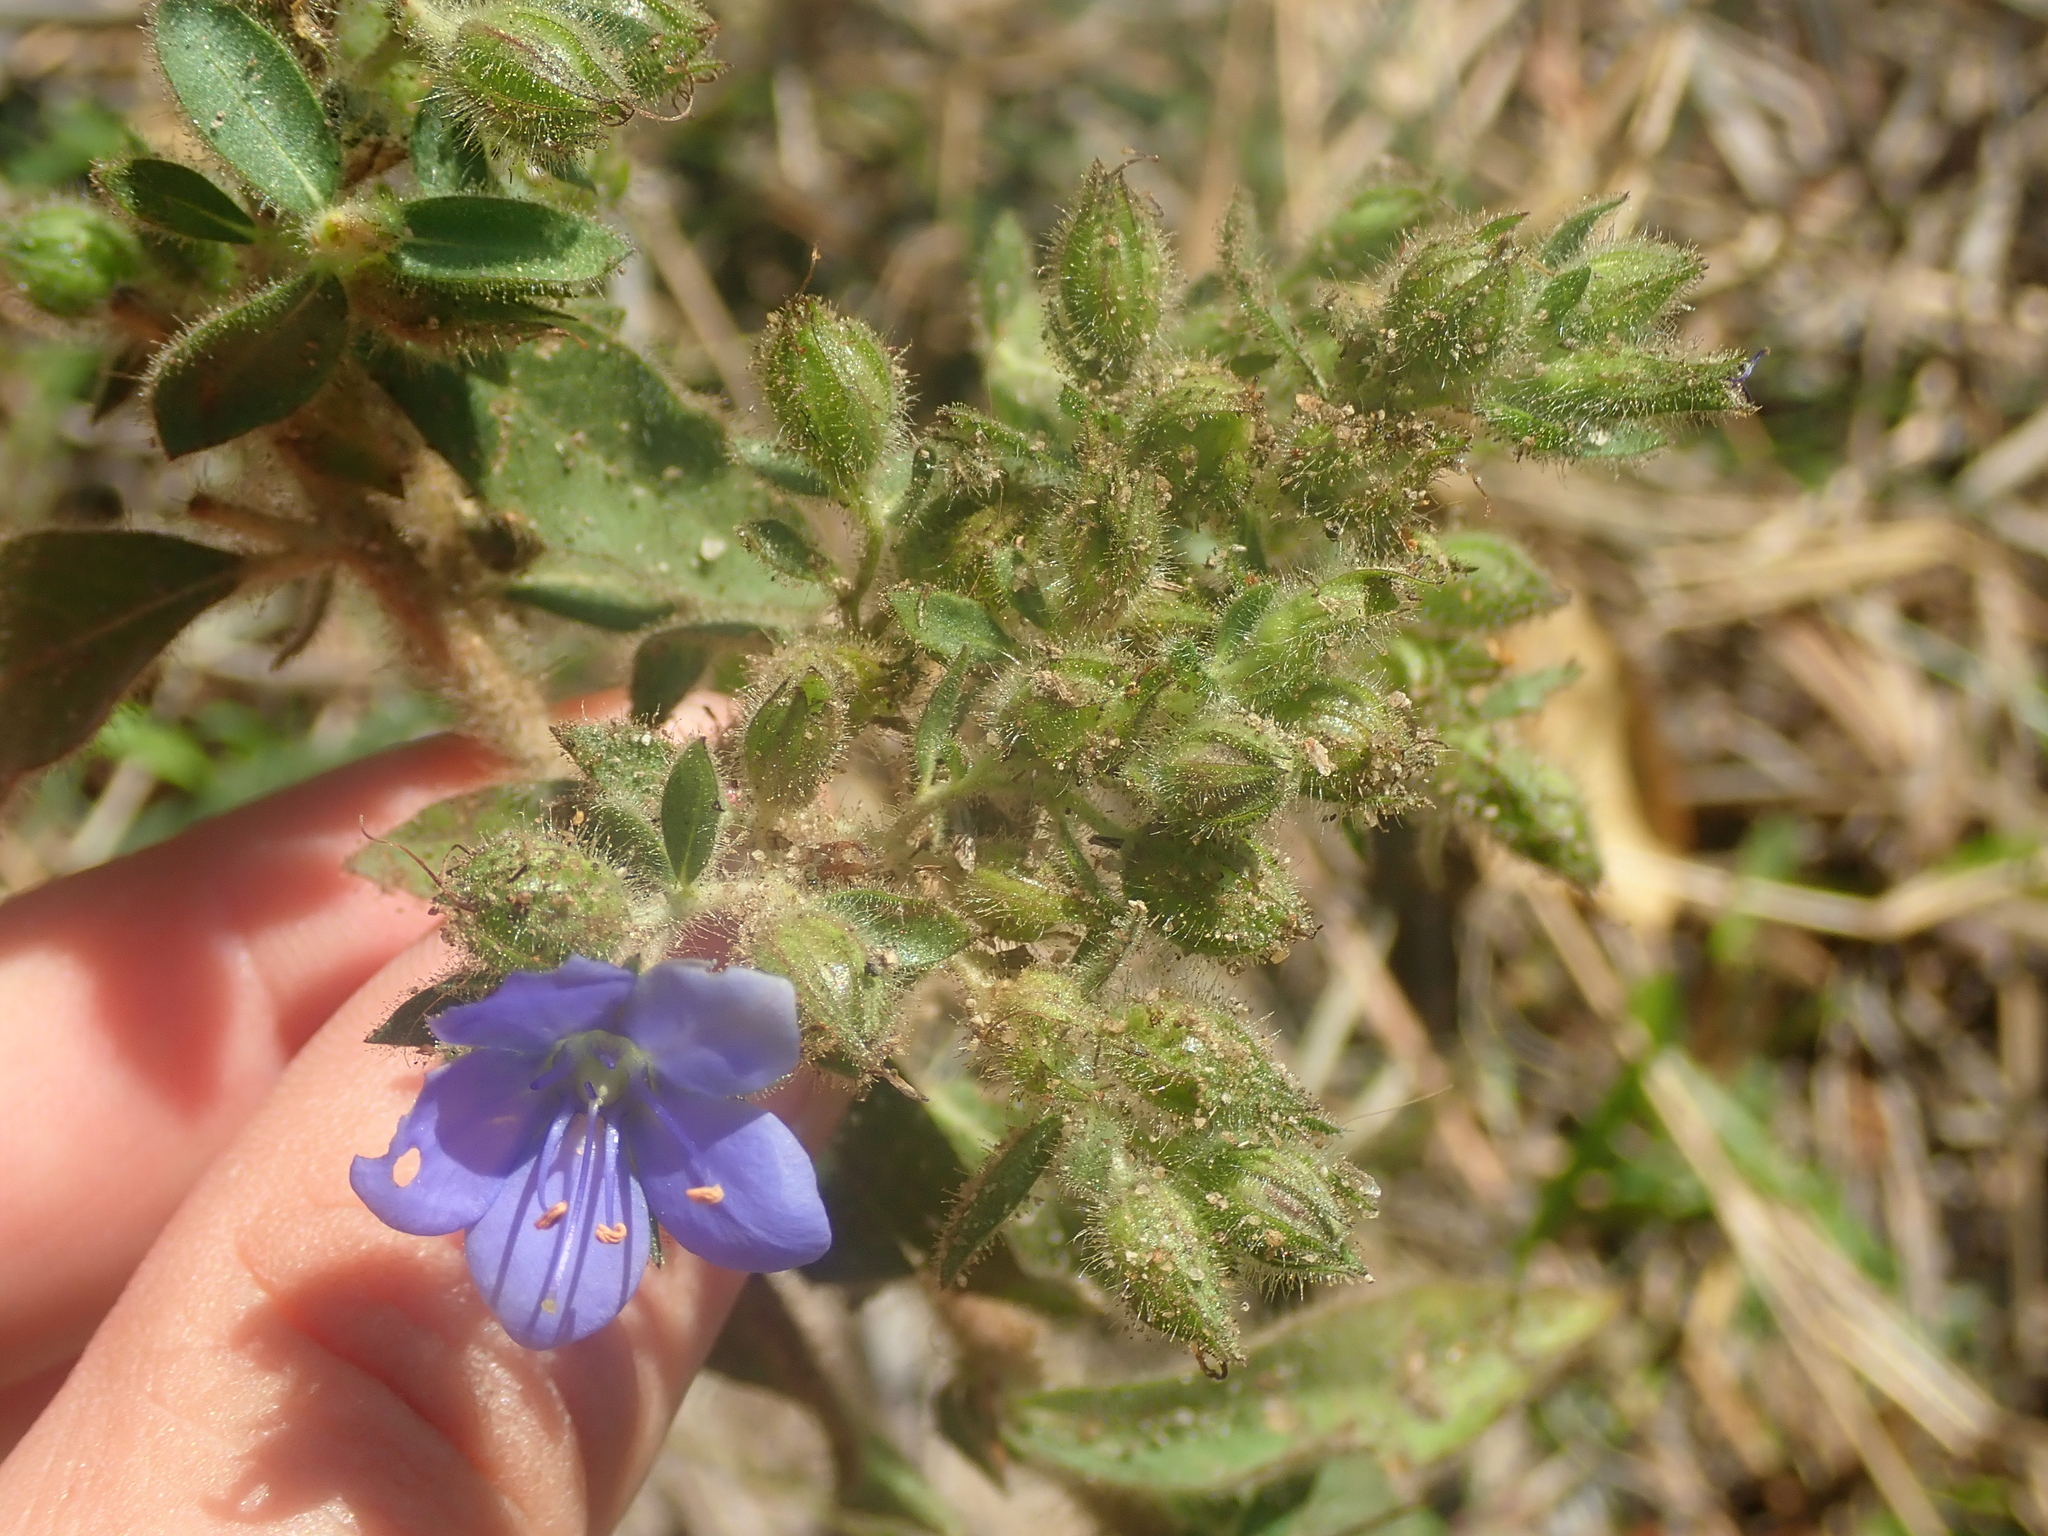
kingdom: Plantae
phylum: Tracheophyta
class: Magnoliopsida
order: Solanales
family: Hydroleaceae
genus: Hydrolea
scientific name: Hydrolea spinosa
